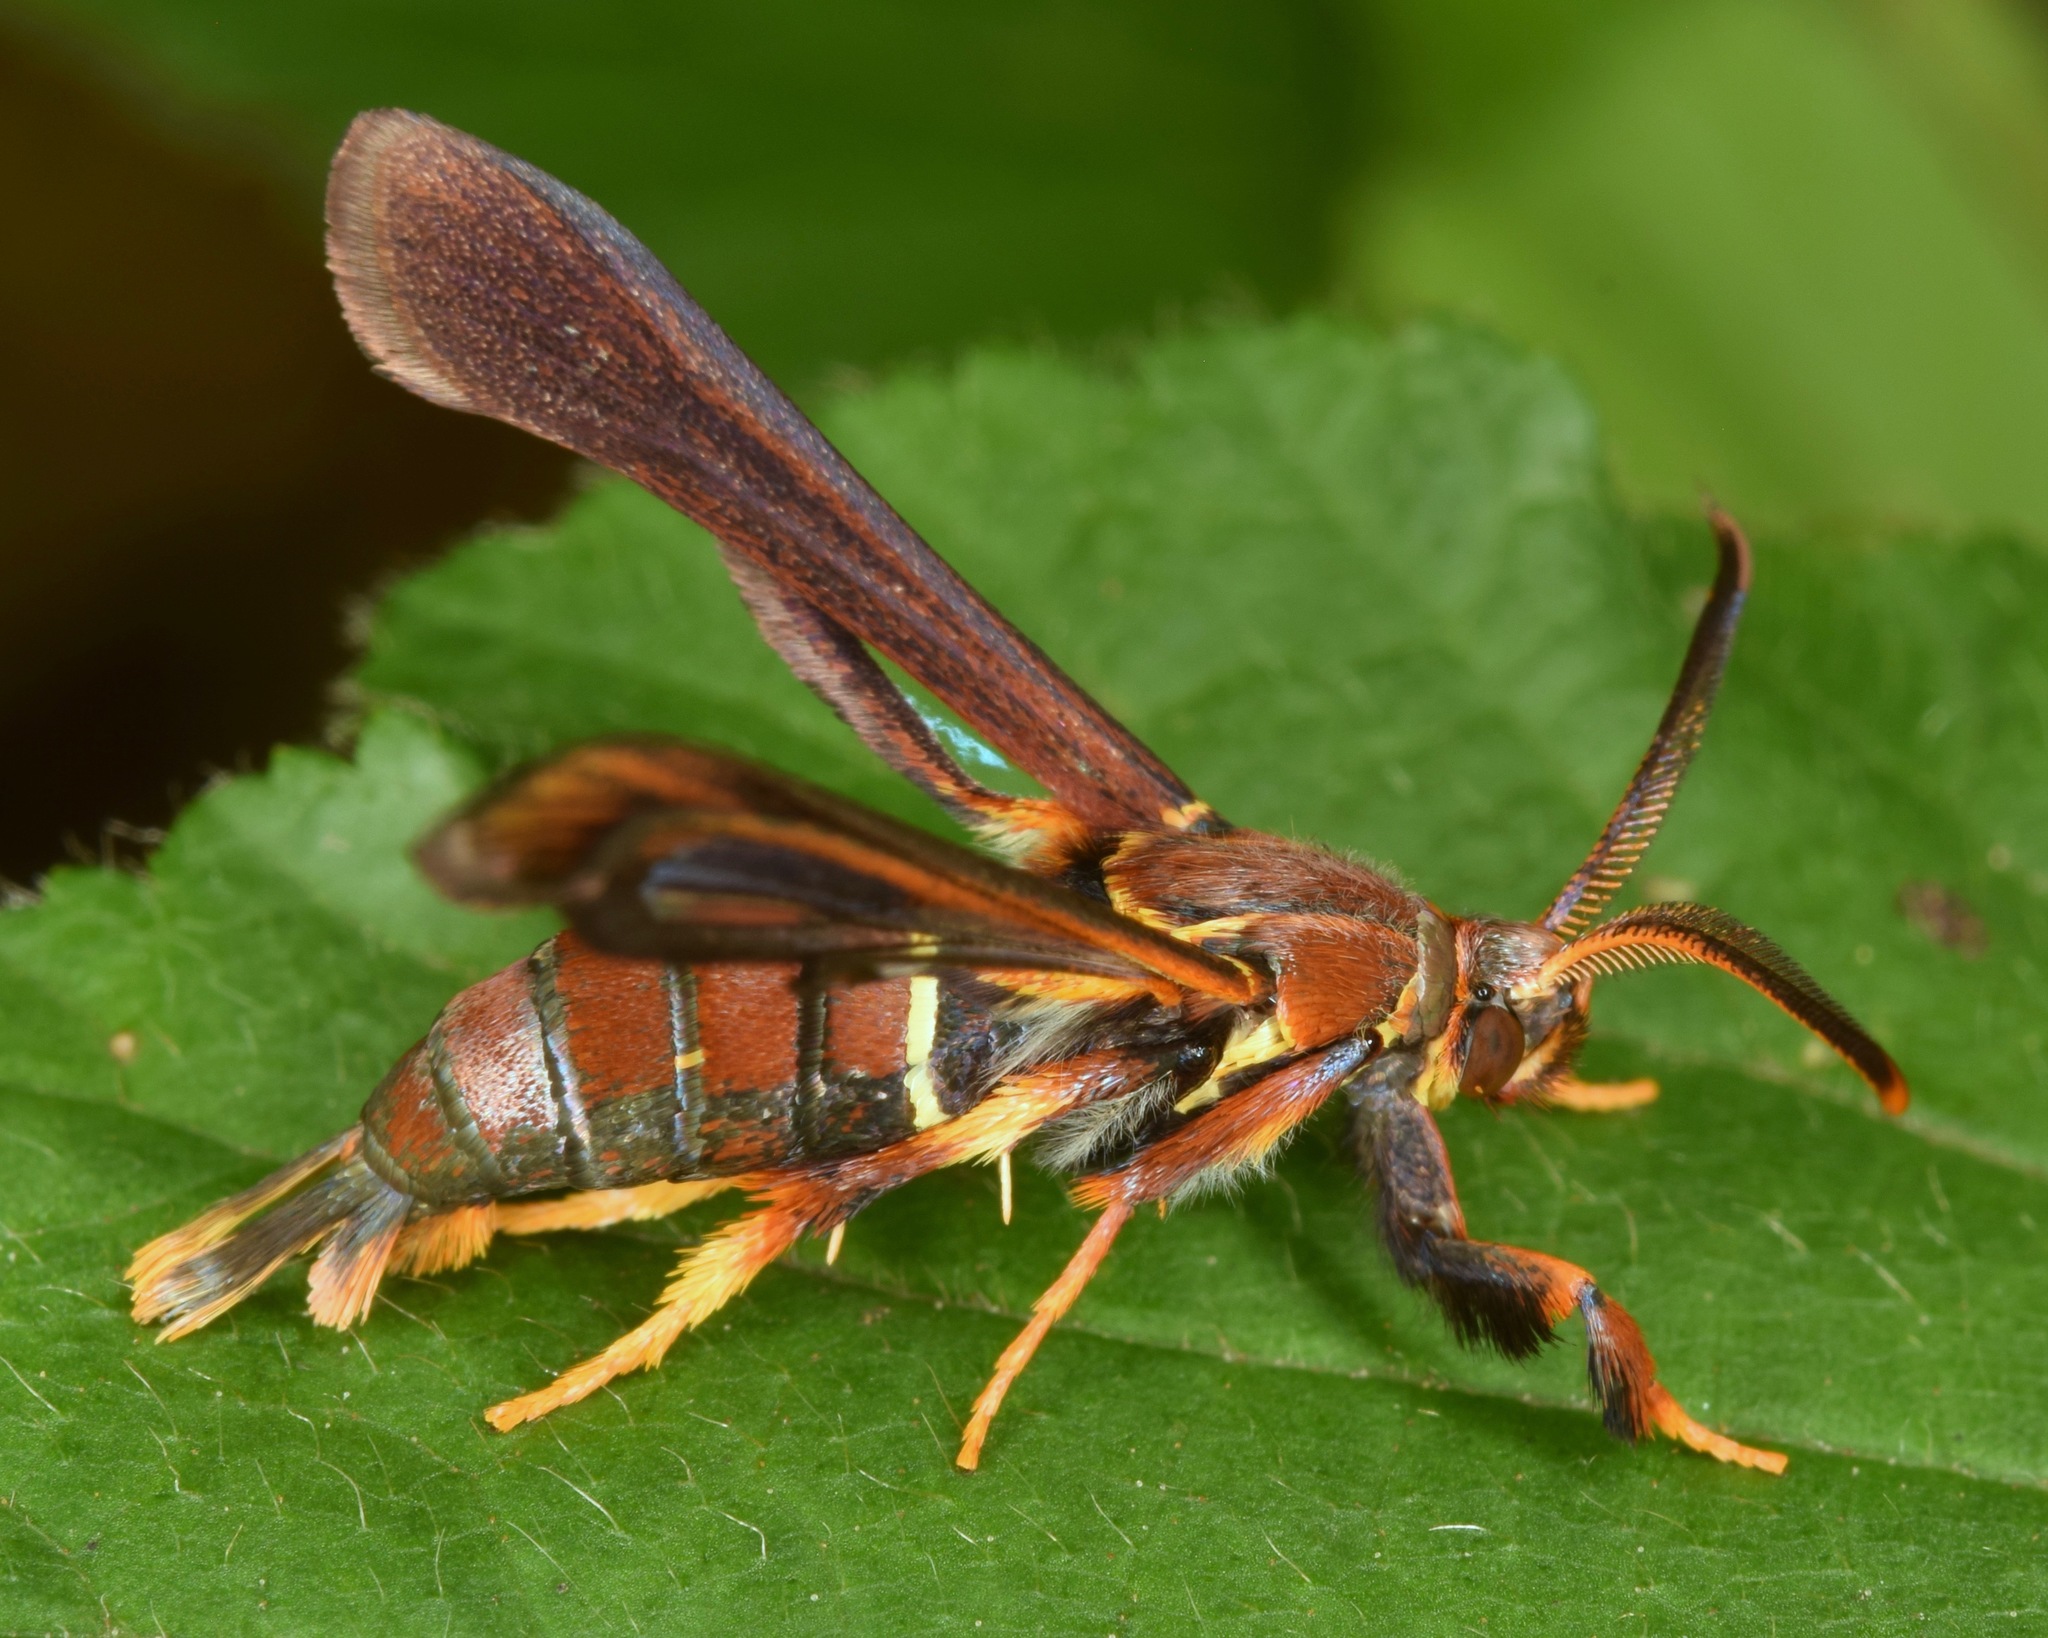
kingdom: Animalia
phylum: Arthropoda
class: Insecta
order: Lepidoptera
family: Sesiidae
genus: Vitacea
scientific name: Vitacea polistiformis
